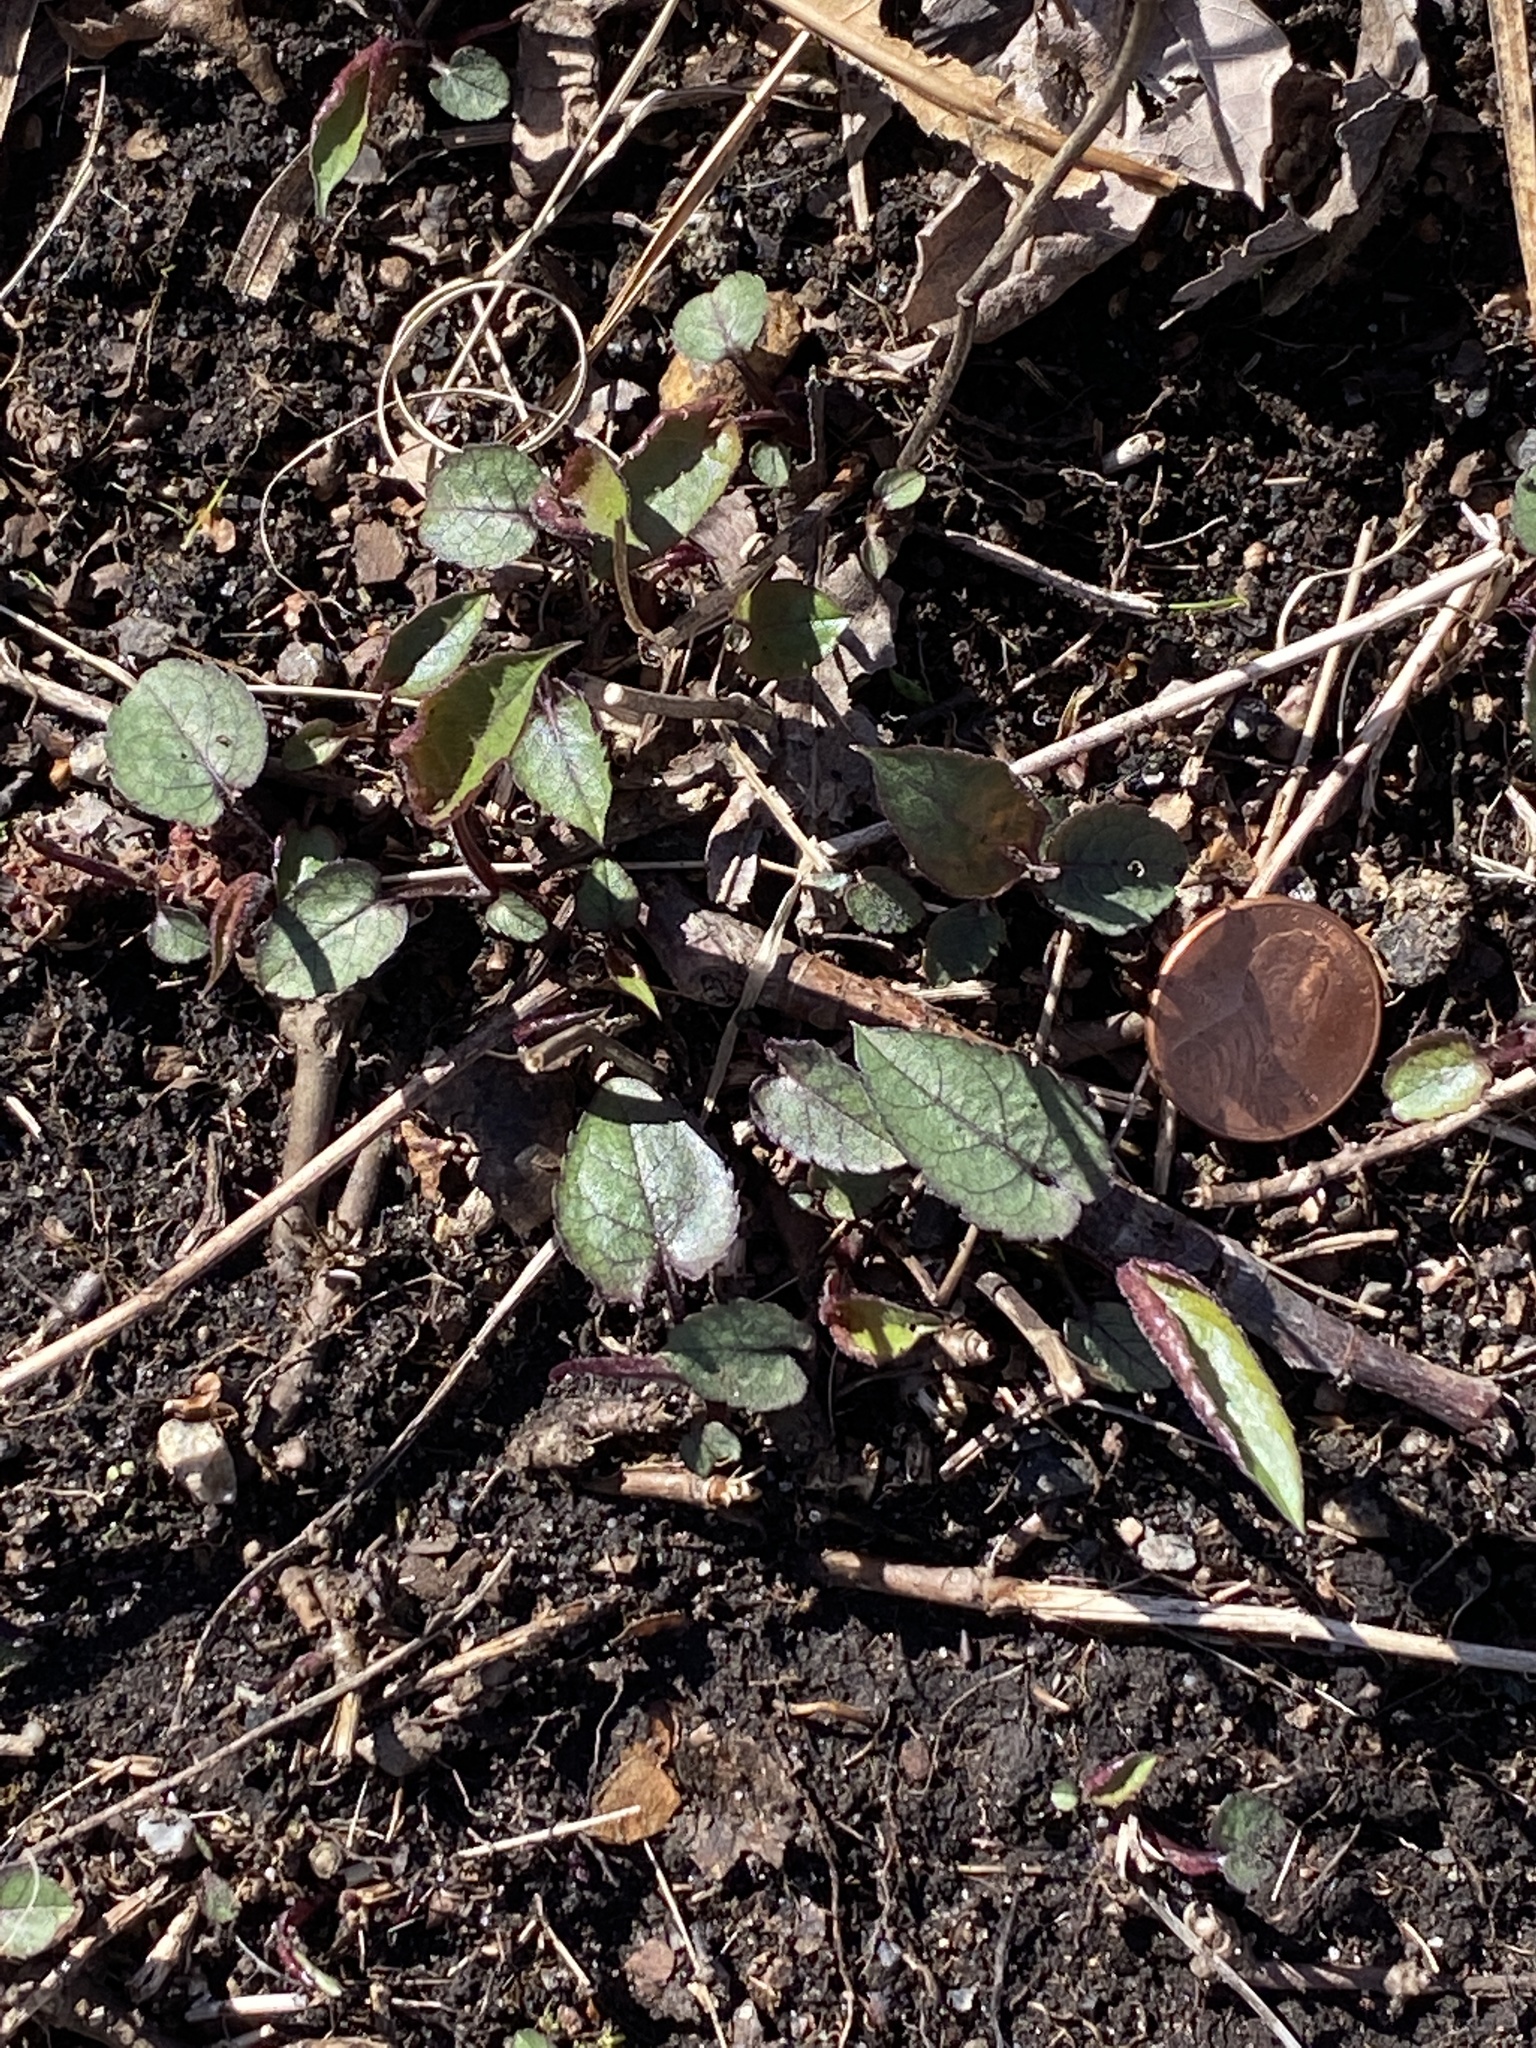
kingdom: Plantae
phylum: Tracheophyta
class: Magnoliopsida
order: Asterales
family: Asteraceae
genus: Eurybia
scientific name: Eurybia divaricata
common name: White wood aster
